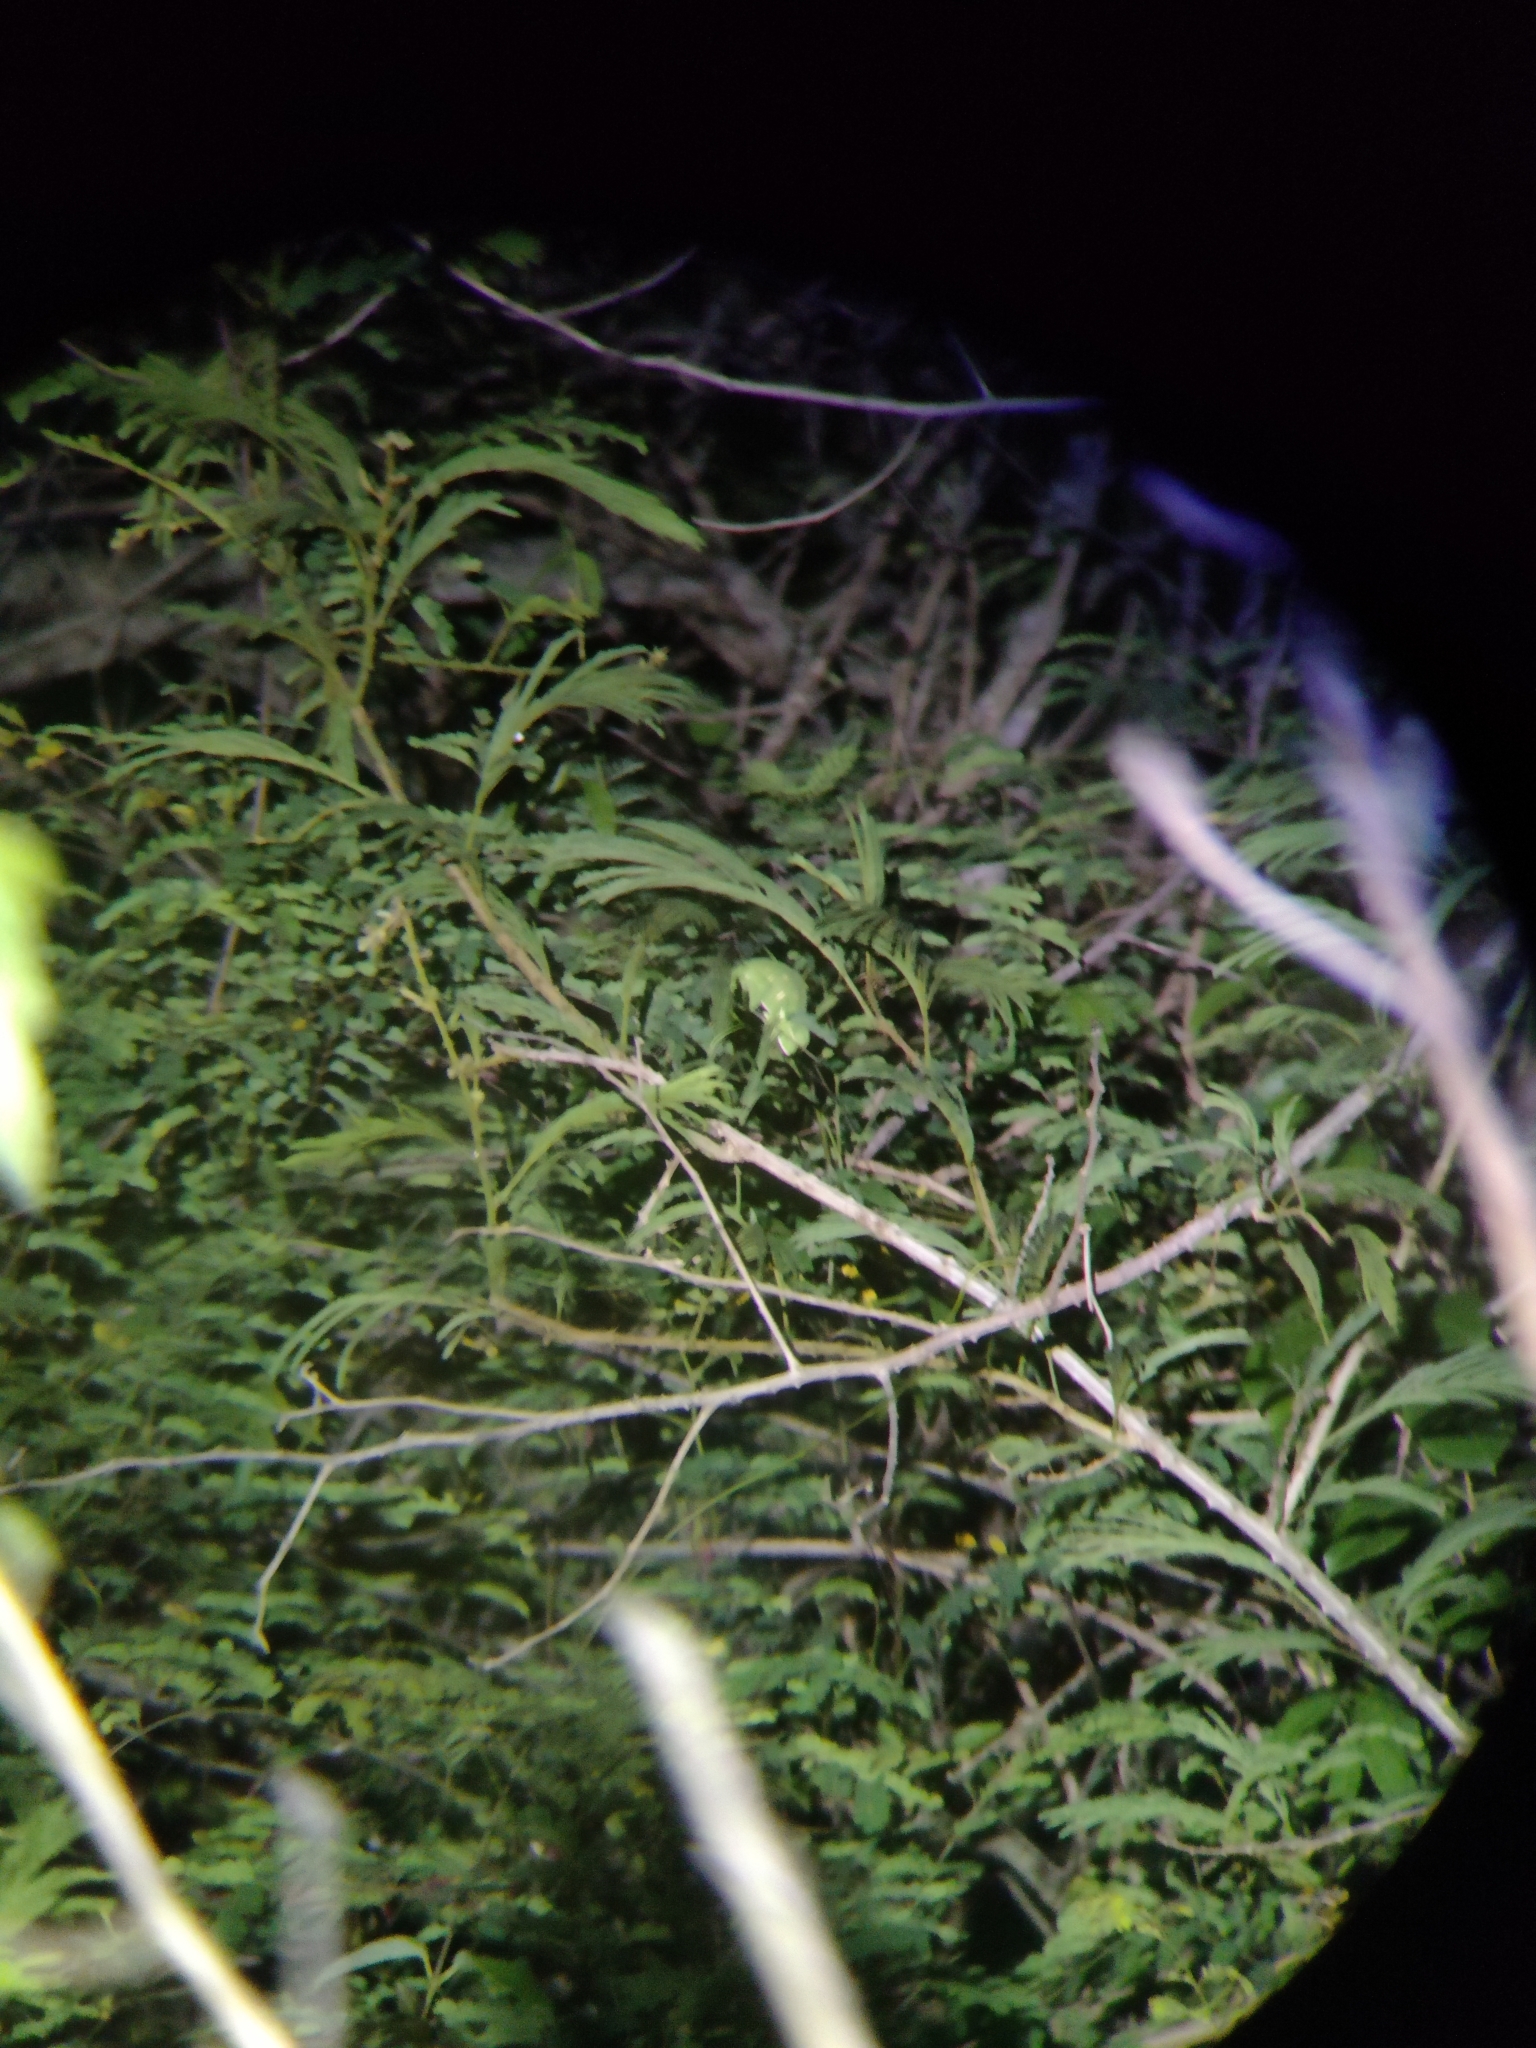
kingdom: Animalia
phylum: Chordata
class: Squamata
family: Chamaeleonidae
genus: Chamaeleo
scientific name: Chamaeleo zeylanicus
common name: Indian chameleon
